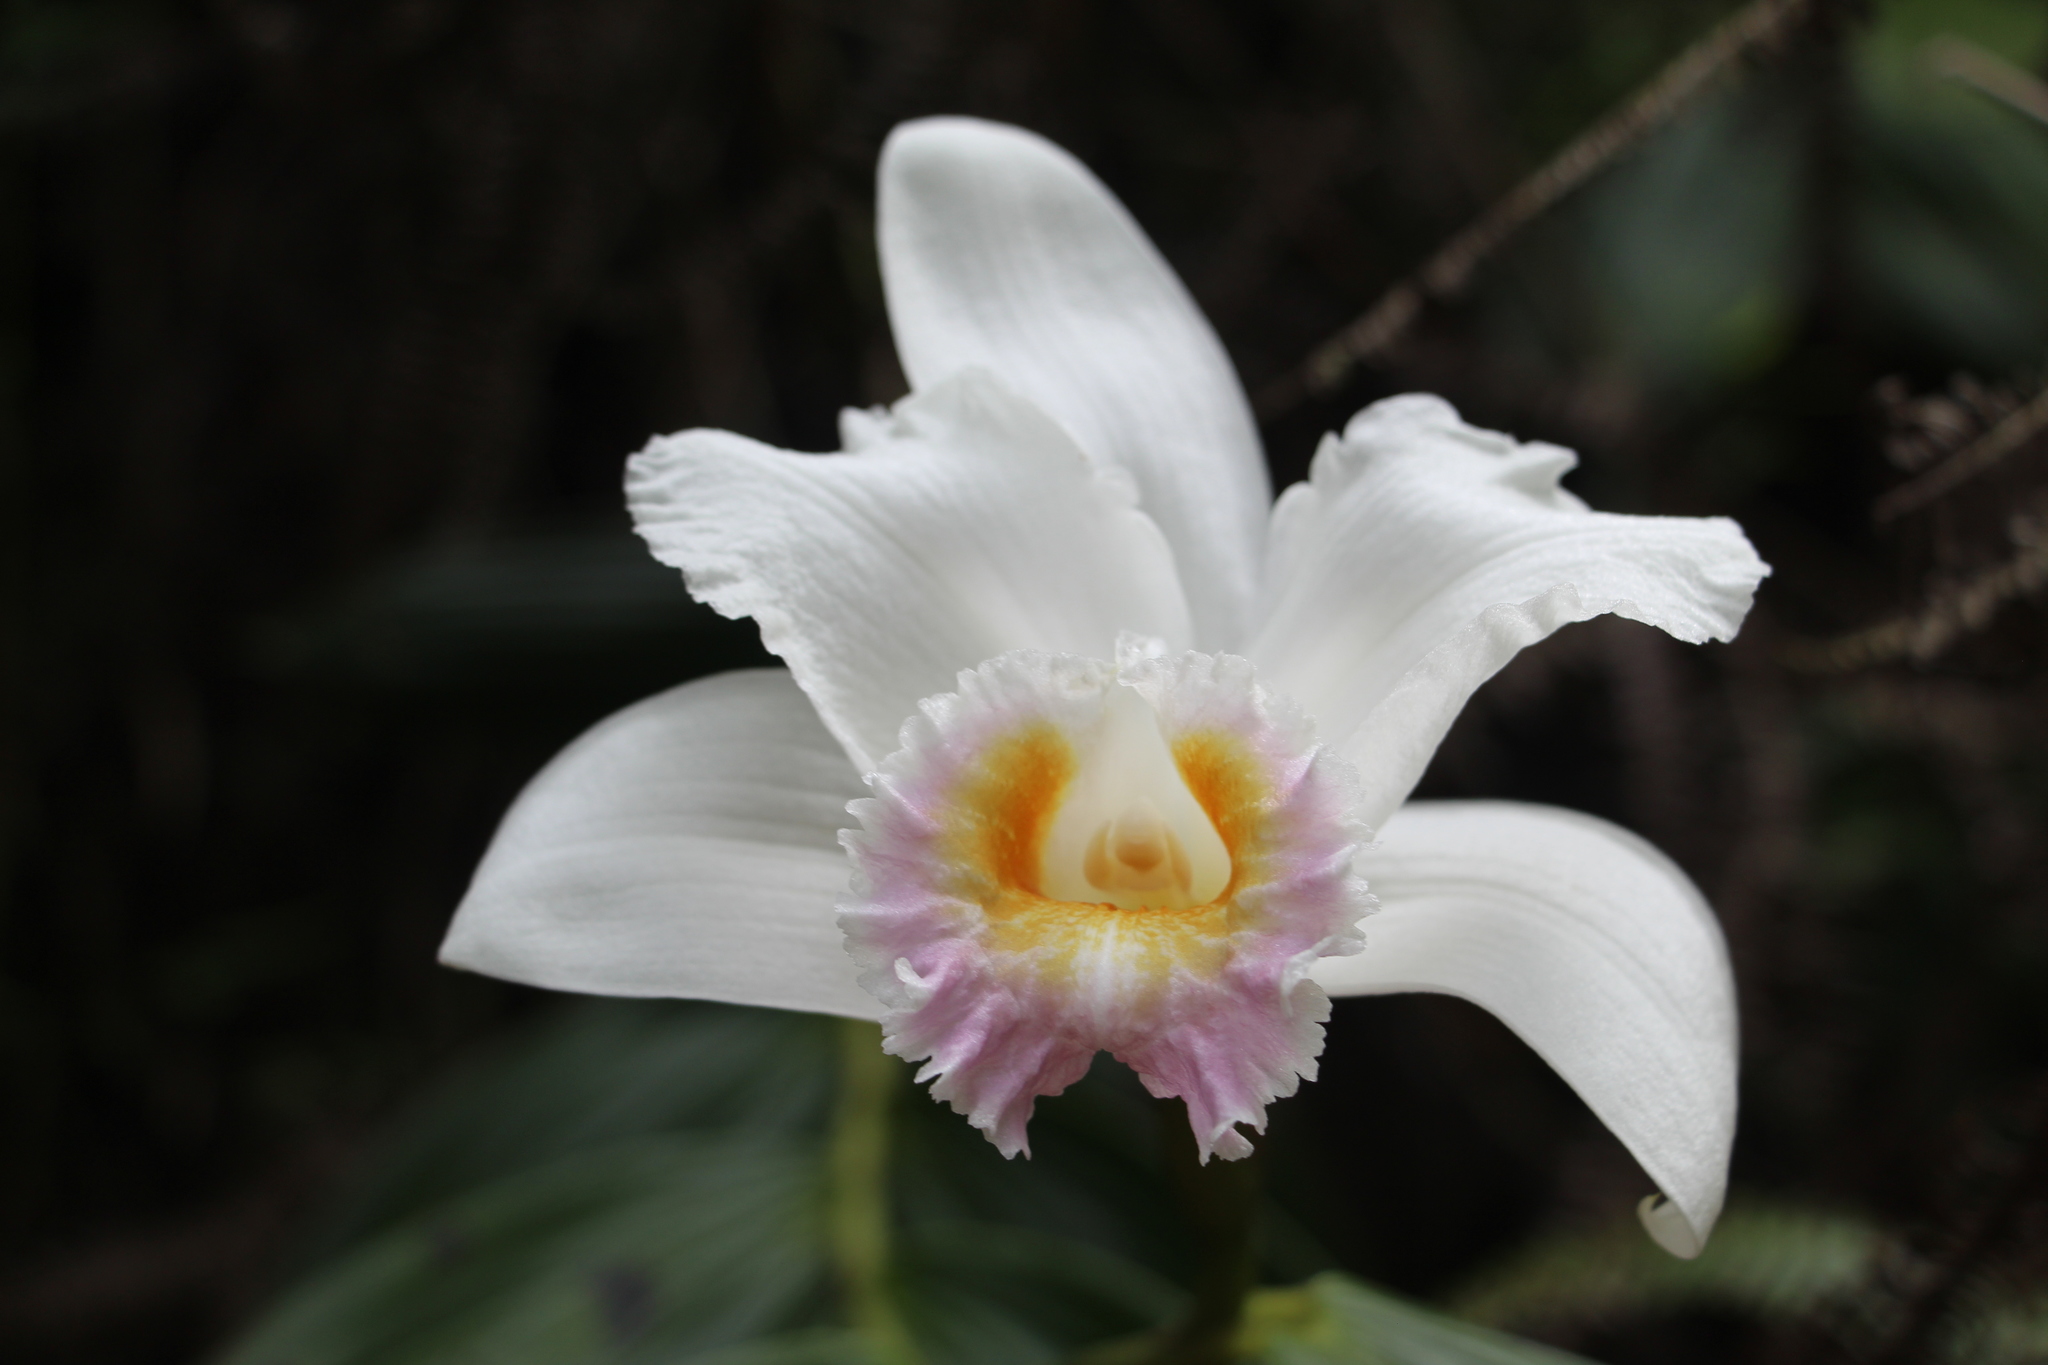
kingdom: Plantae
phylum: Tracheophyta
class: Liliopsida
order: Asparagales
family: Orchidaceae
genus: Sobralia
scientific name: Sobralia powellii
